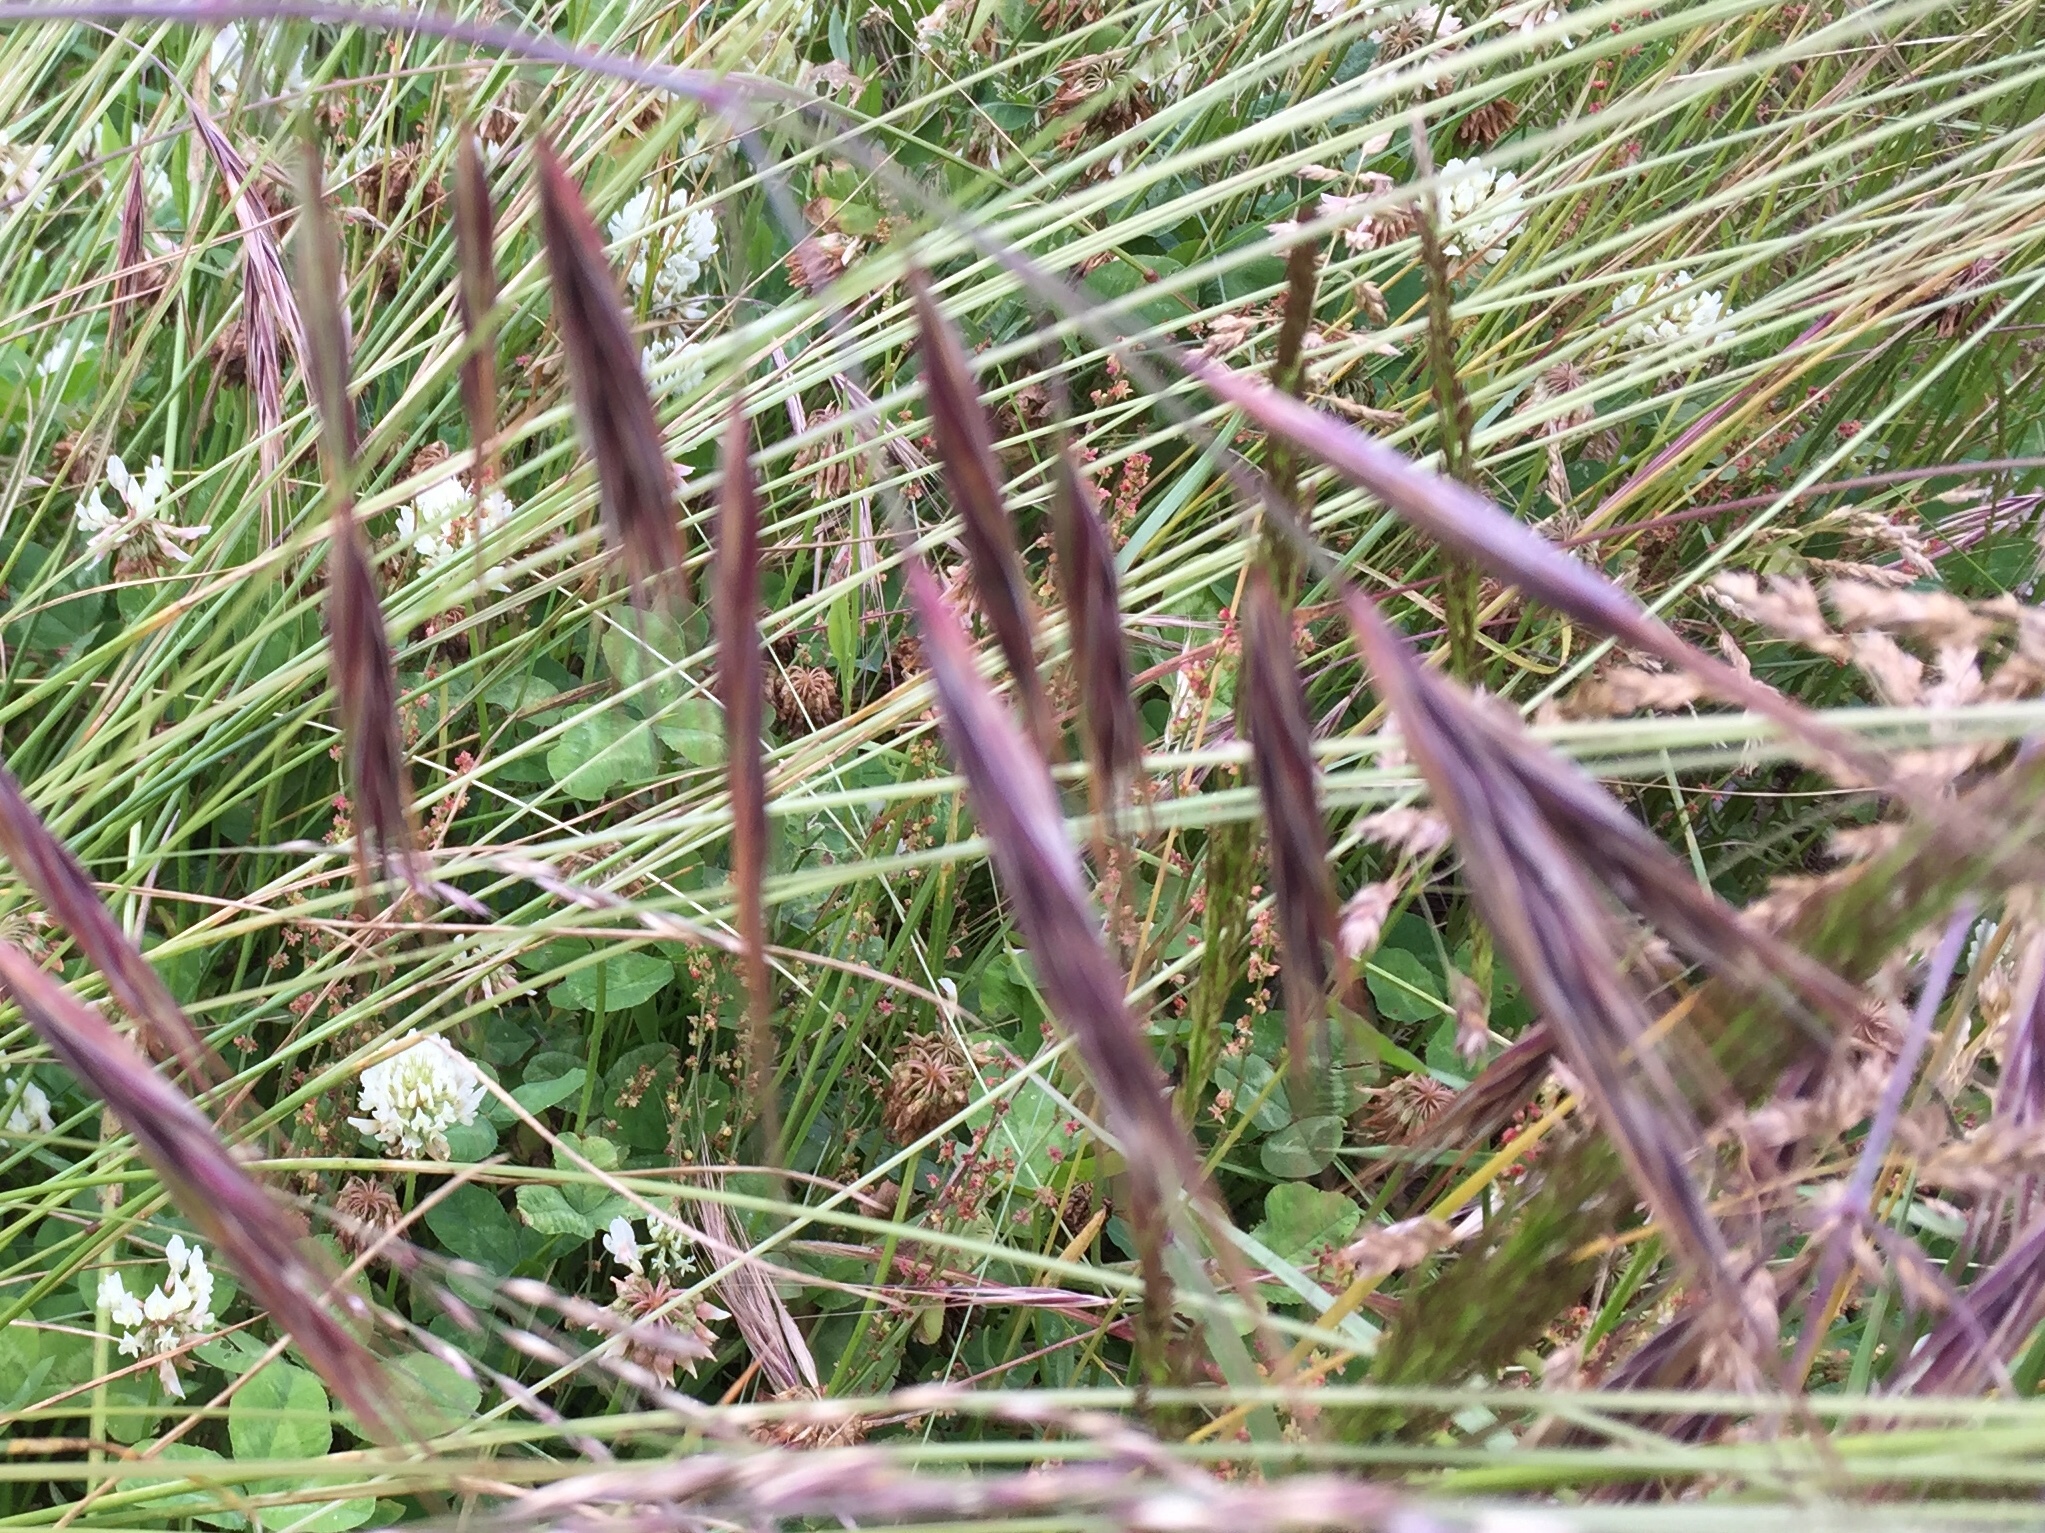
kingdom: Plantae
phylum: Tracheophyta
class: Liliopsida
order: Poales
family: Poaceae
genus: Bromus
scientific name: Bromus diandrus
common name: Ripgut brome
